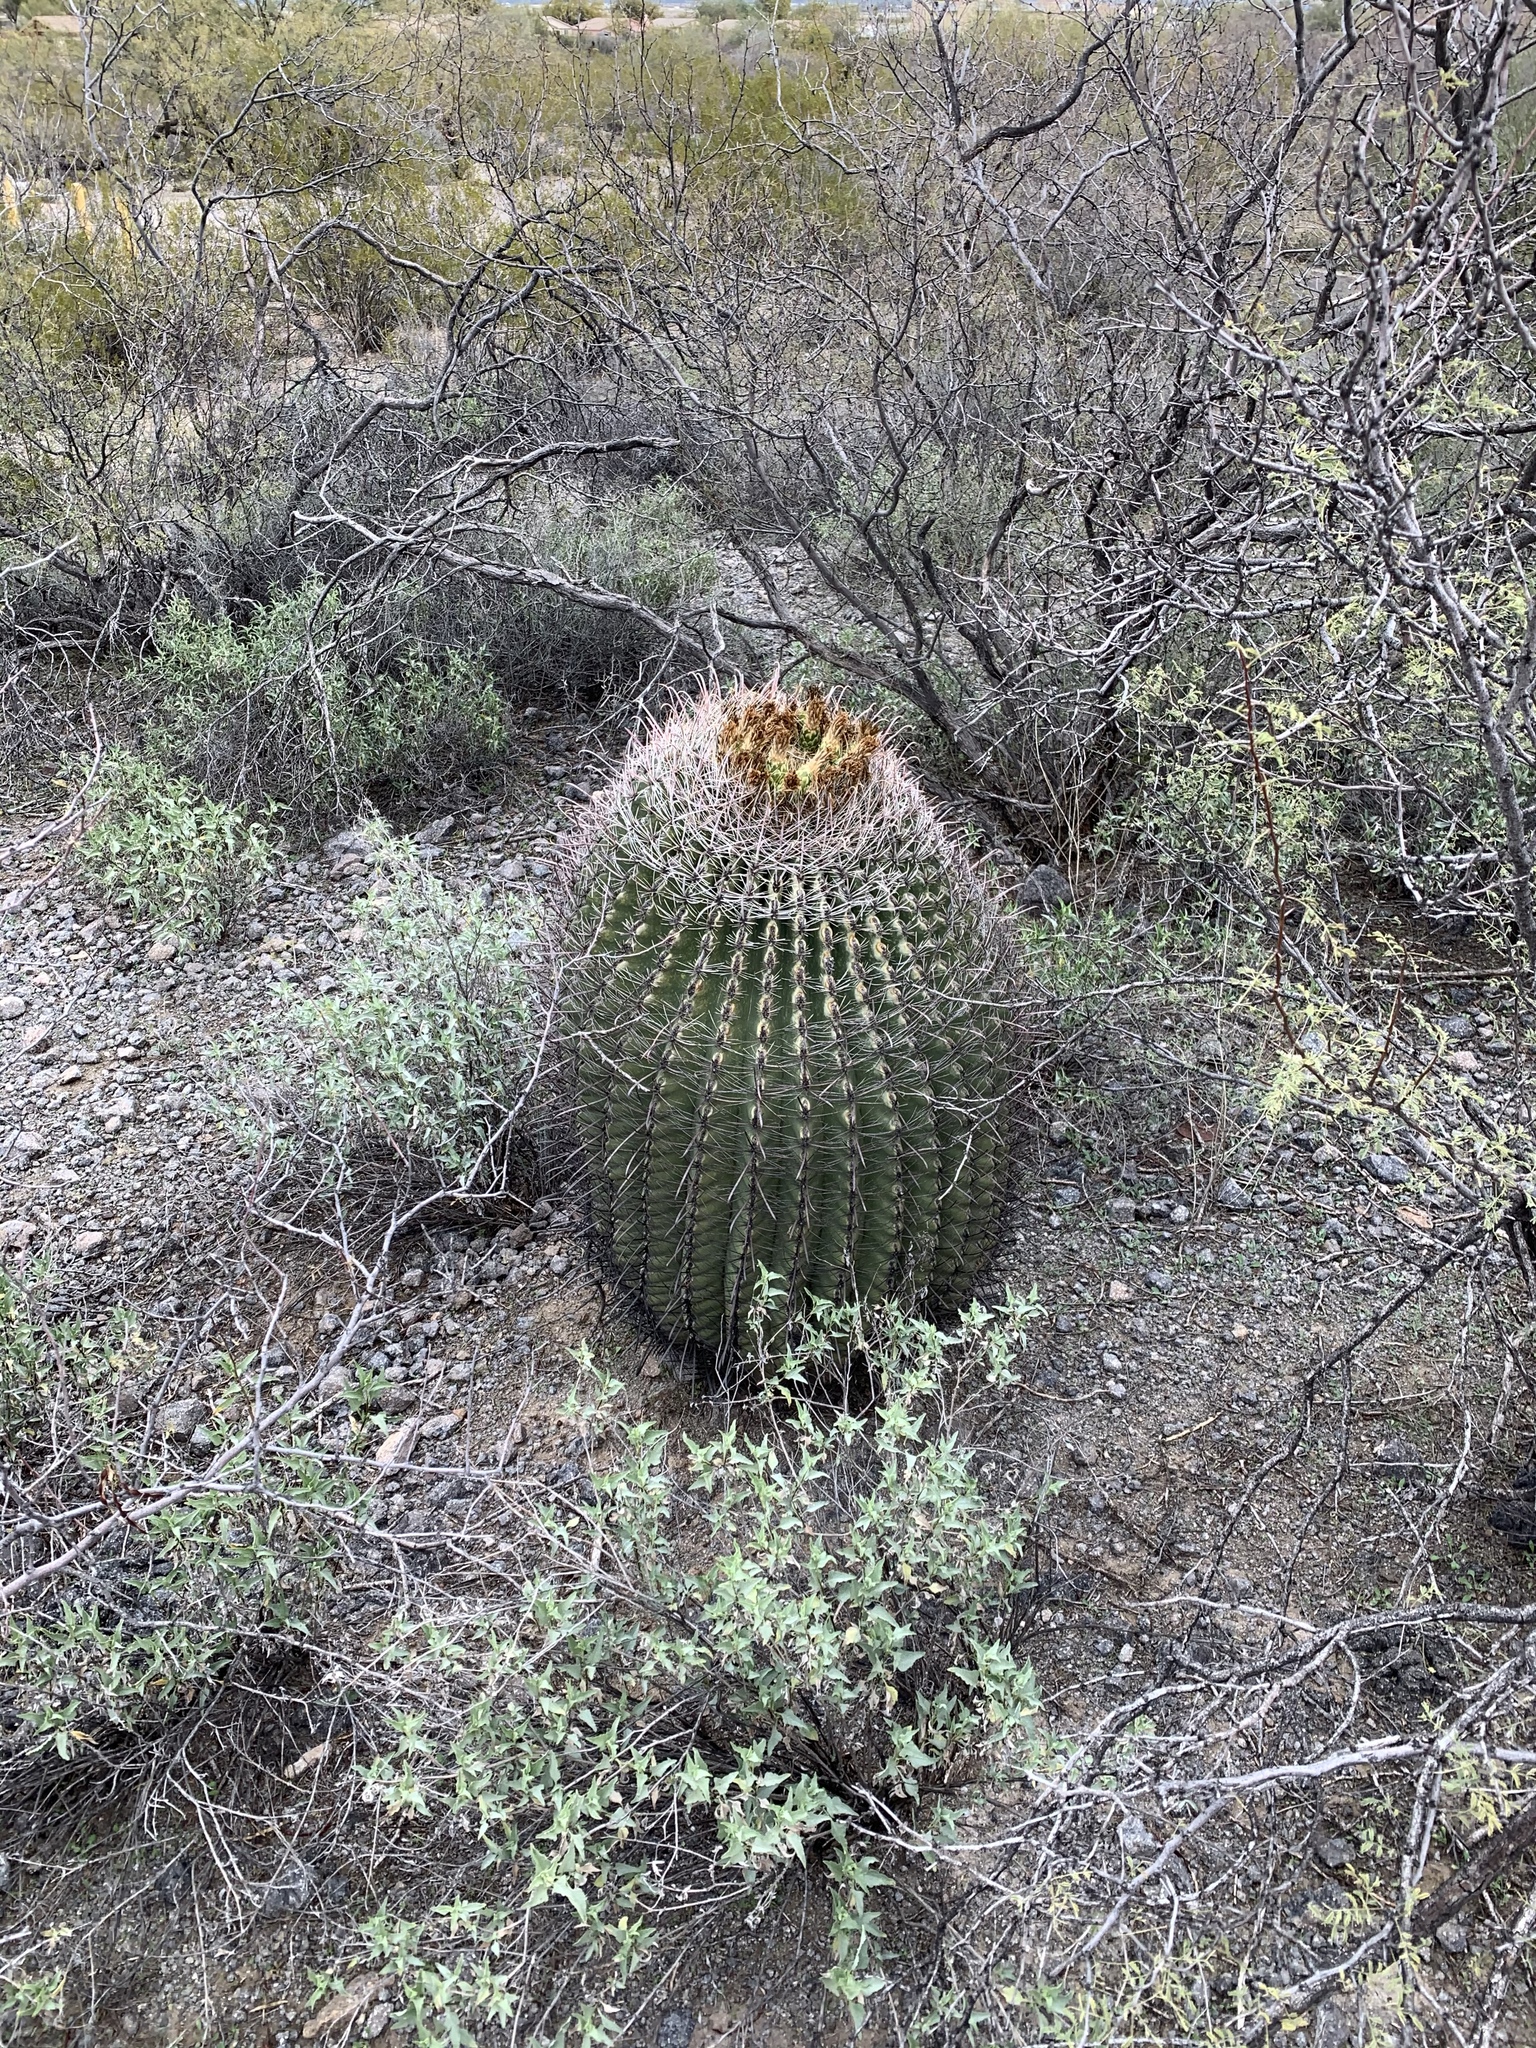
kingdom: Plantae
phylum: Tracheophyta
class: Magnoliopsida
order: Caryophyllales
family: Cactaceae
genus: Ferocactus
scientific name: Ferocactus wislizeni
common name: Candy barrel cactus
